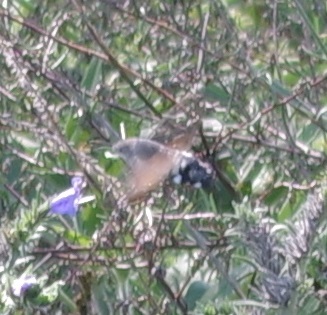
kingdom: Animalia
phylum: Arthropoda
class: Insecta
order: Lepidoptera
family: Sphingidae
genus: Macroglossum
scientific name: Macroglossum stellatarum
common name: Humming-bird hawk-moth
